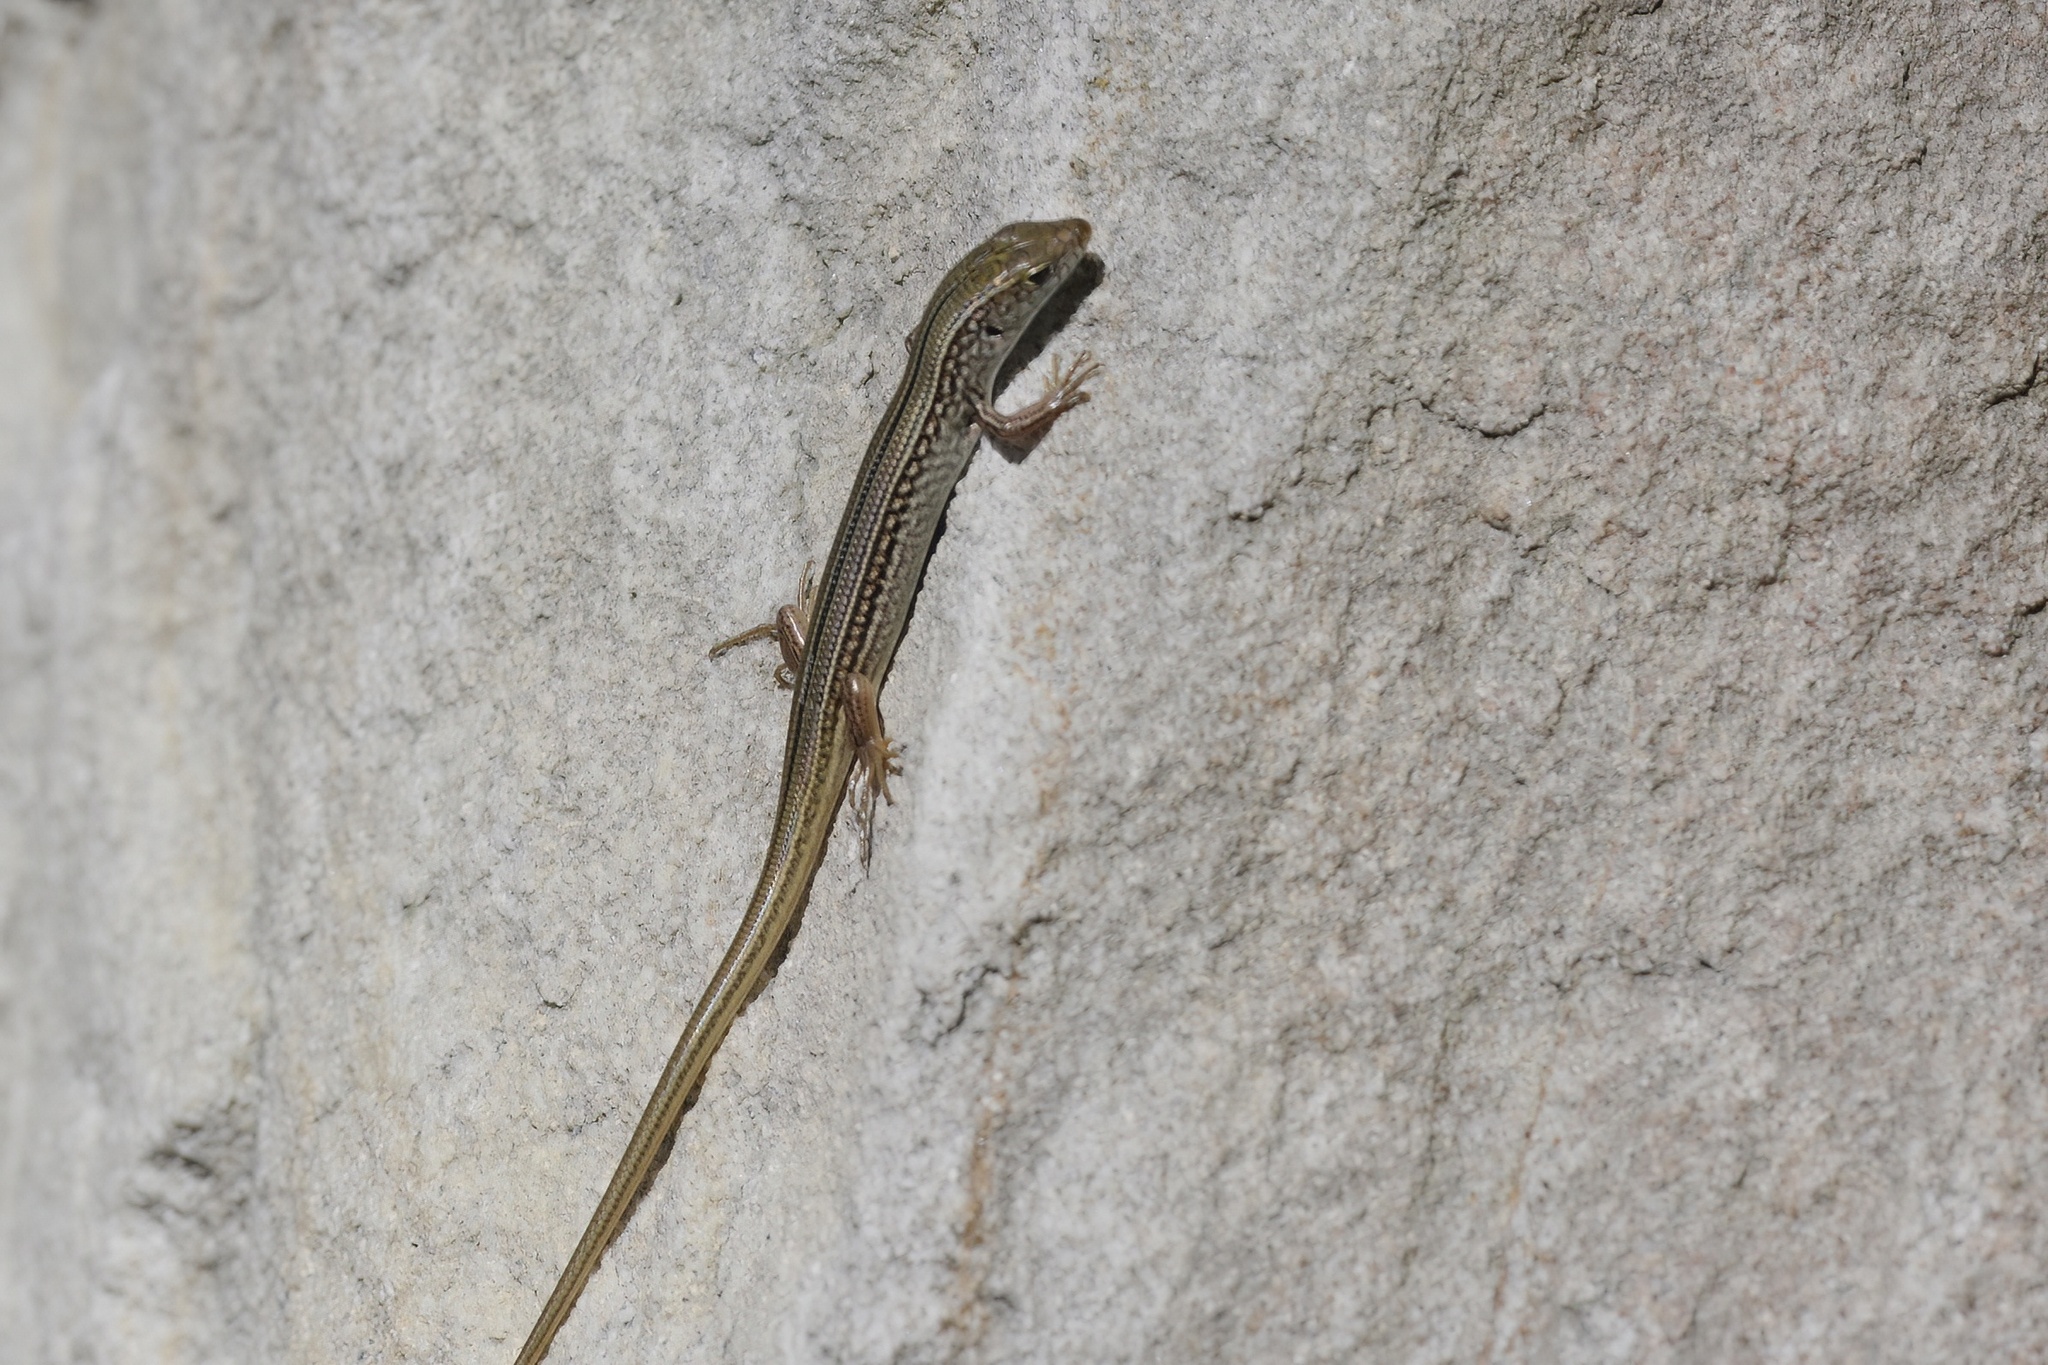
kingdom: Animalia
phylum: Chordata
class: Squamata
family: Scincidae
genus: Ctenotus
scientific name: Ctenotus robustus
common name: Robust ctenotus
